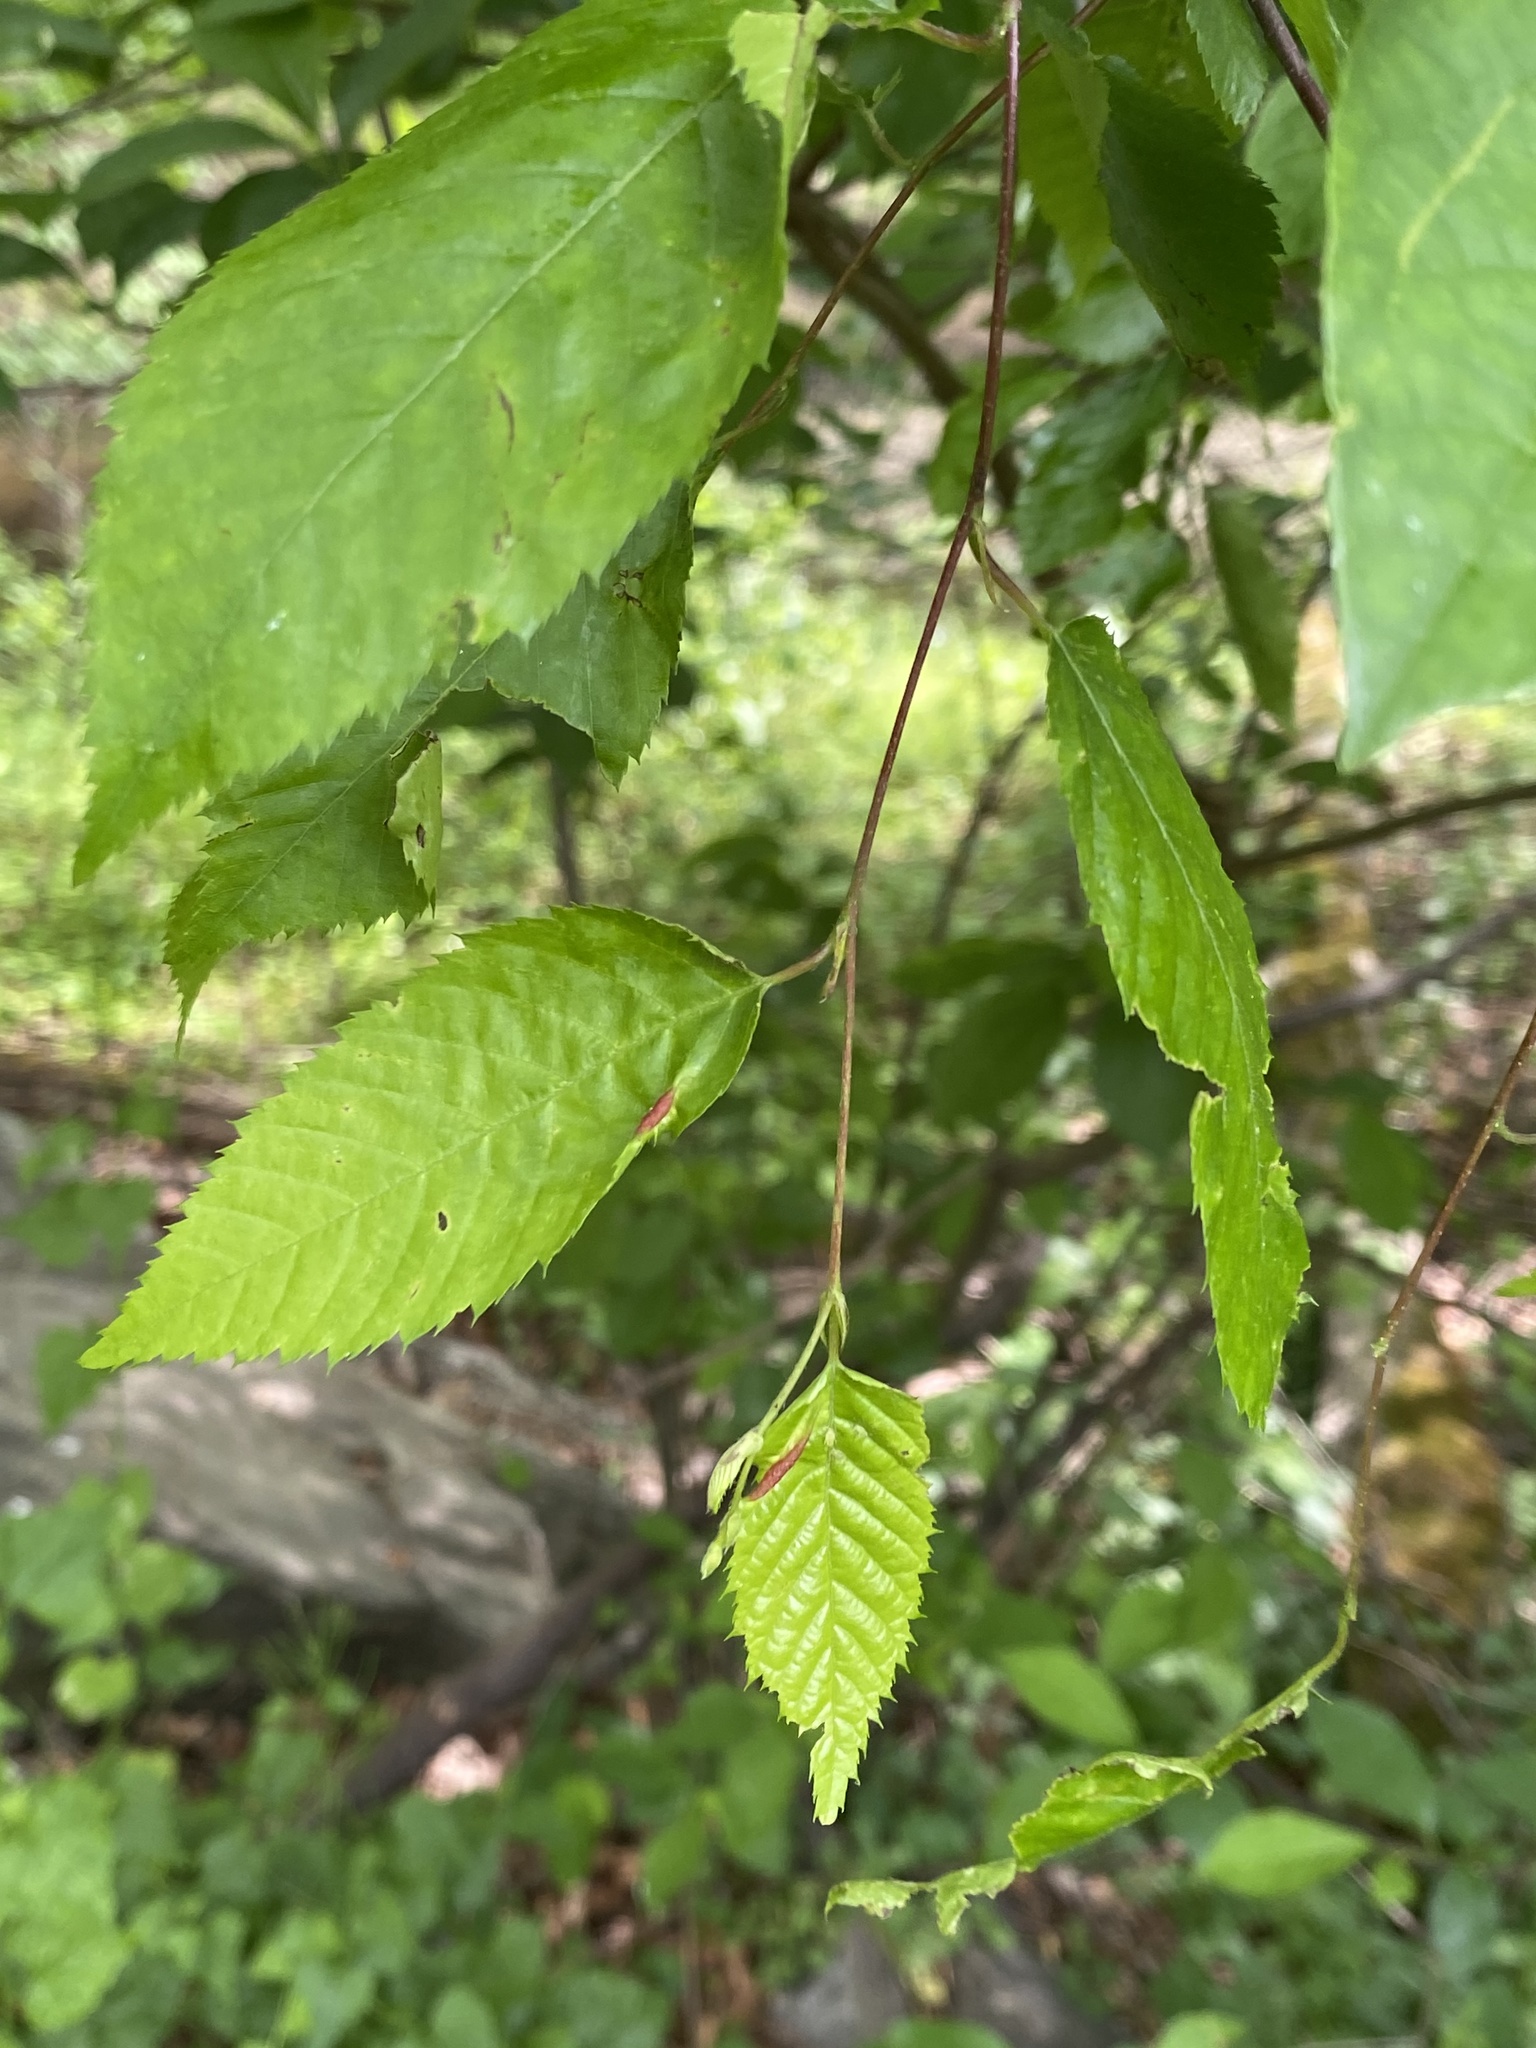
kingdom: Animalia
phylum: Arthropoda
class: Insecta
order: Diptera
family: Cecidomyiidae
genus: Dasineura
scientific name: Dasineura pudibunda
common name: Hornbeam leaf gall midge
